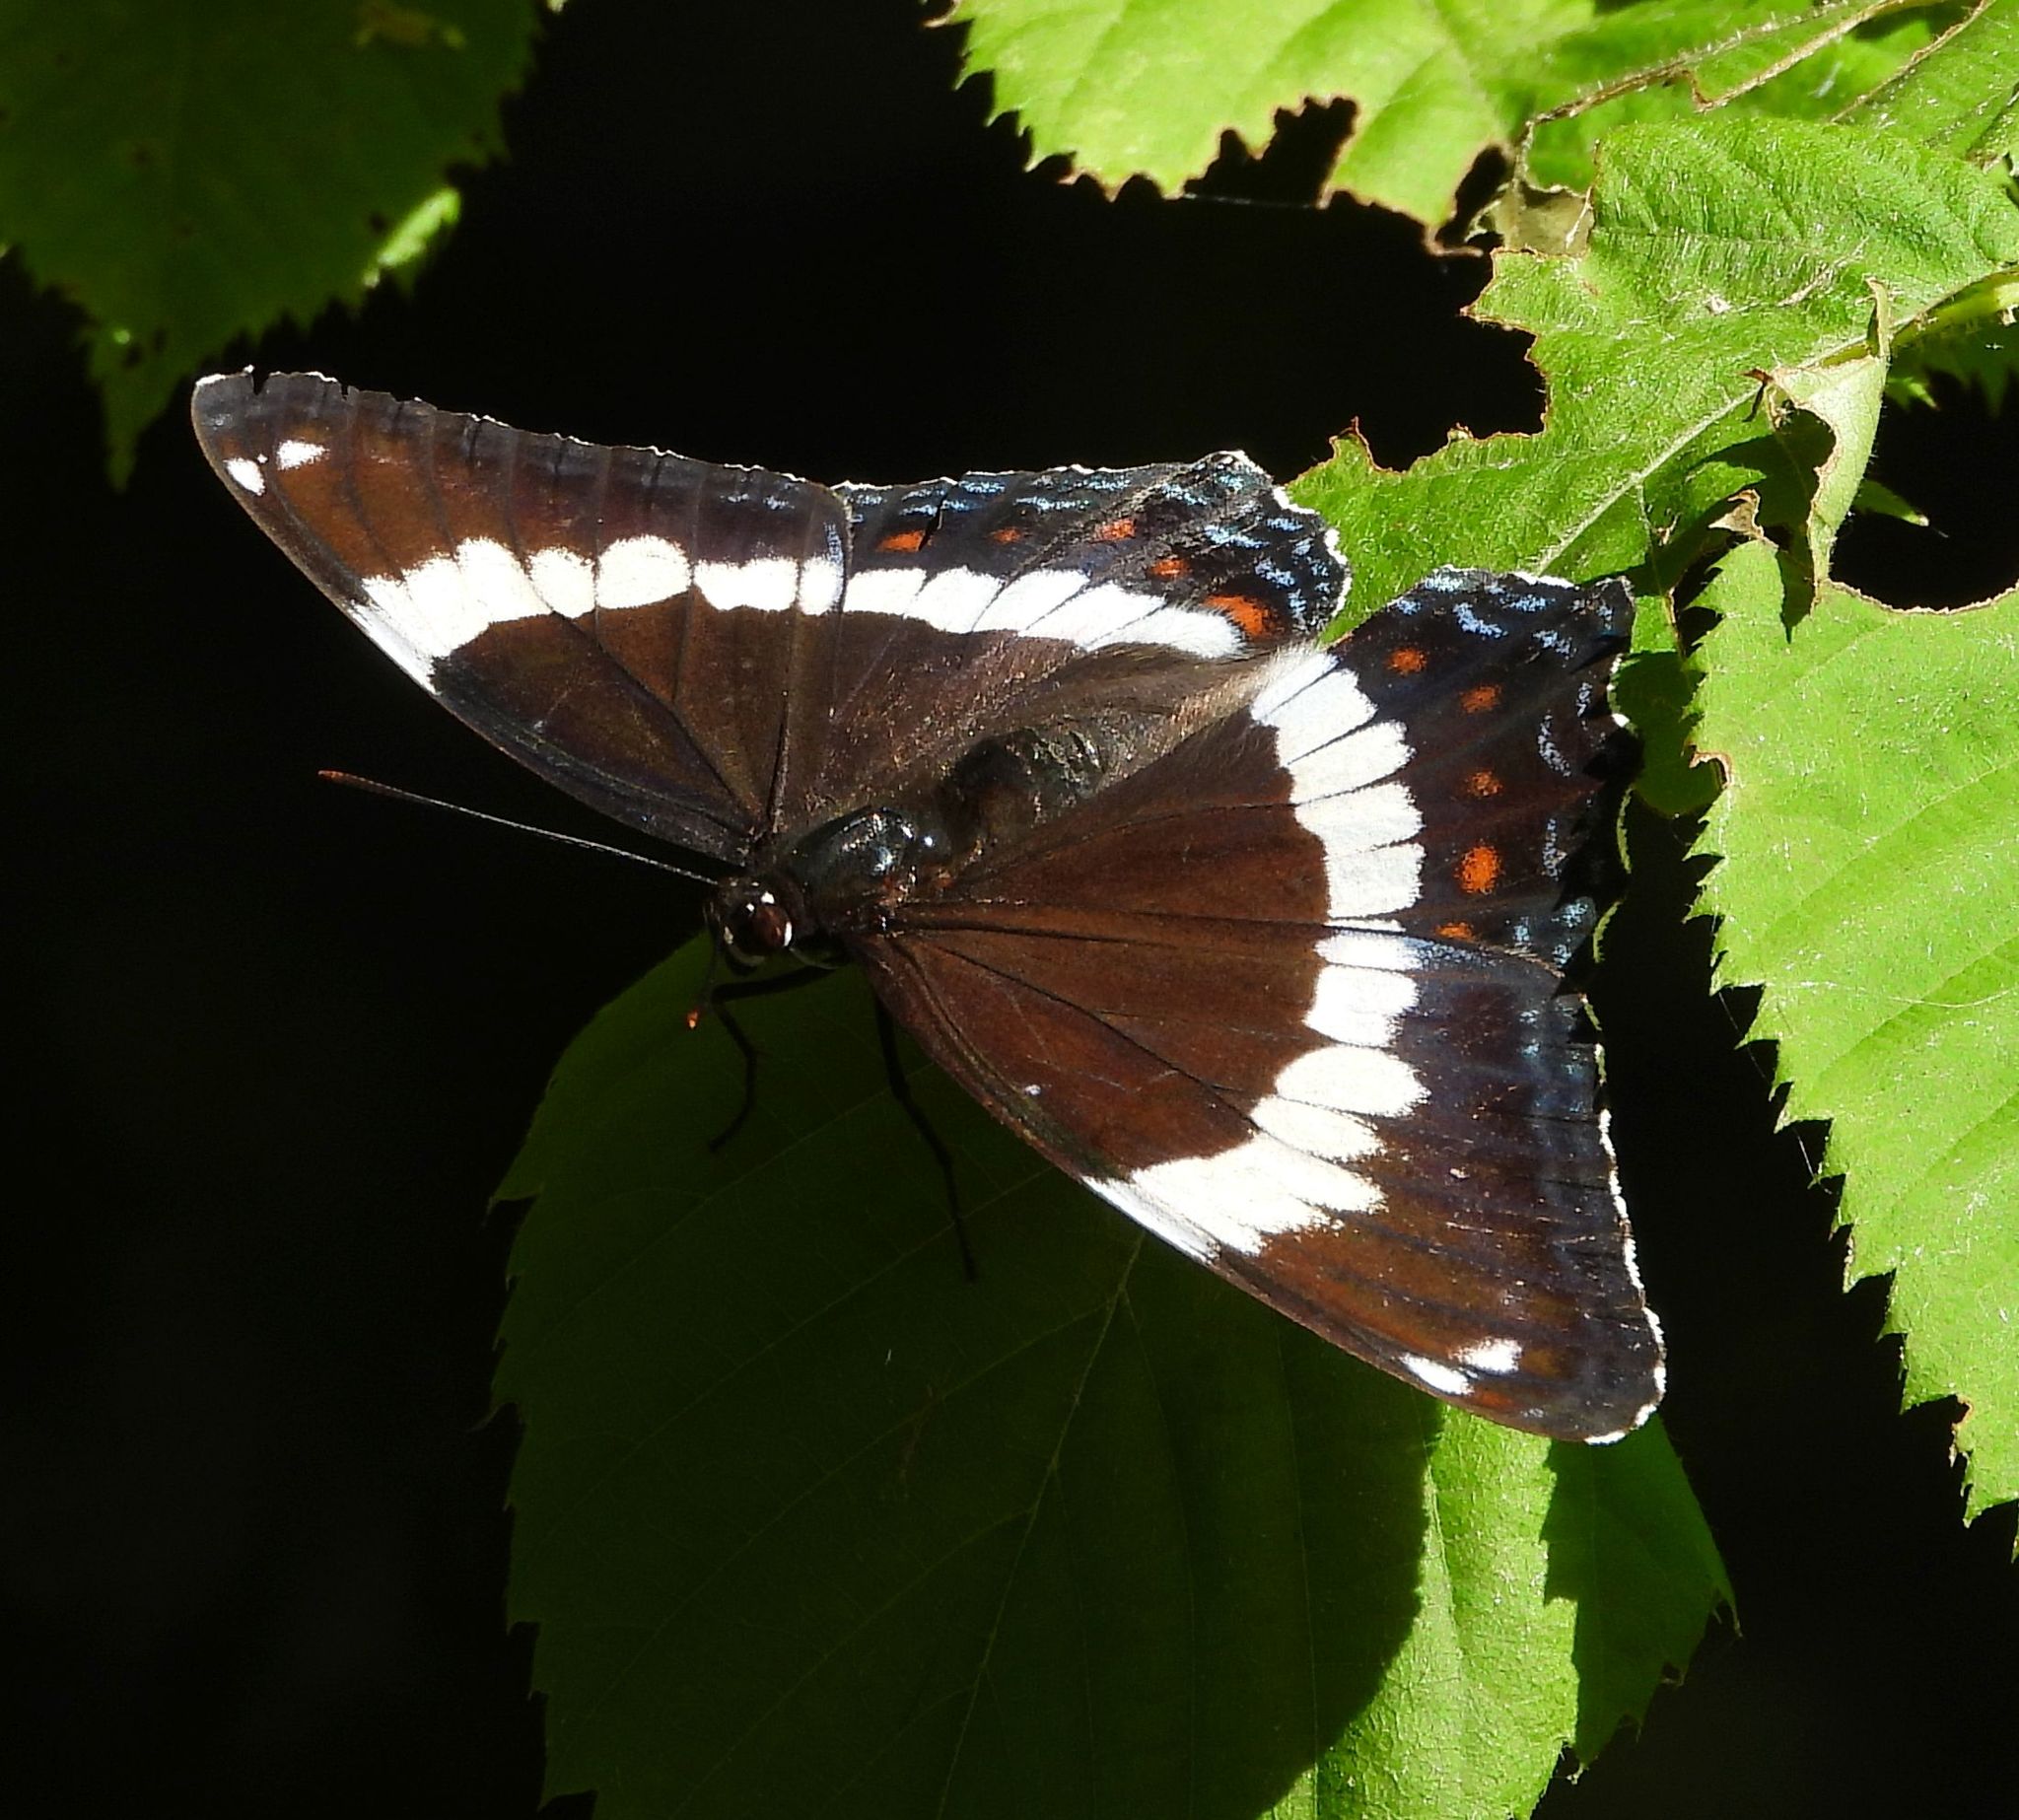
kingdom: Animalia
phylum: Arthropoda
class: Insecta
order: Lepidoptera
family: Nymphalidae
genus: Limenitis
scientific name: Limenitis arthemis
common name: Red-spotted admiral
